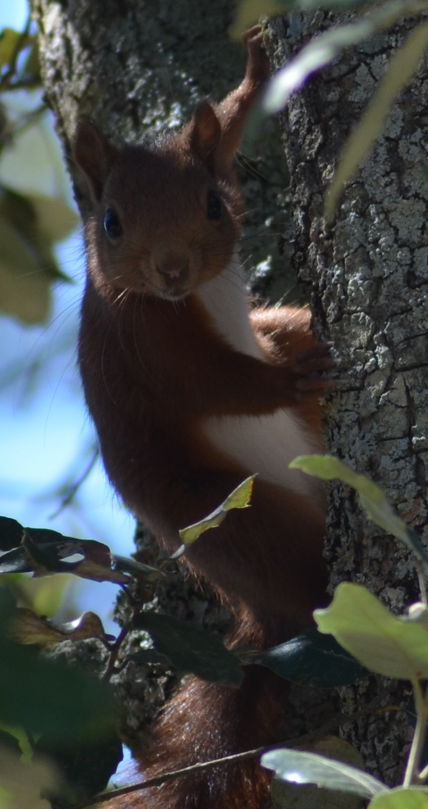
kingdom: Animalia
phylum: Chordata
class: Mammalia
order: Rodentia
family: Sciuridae
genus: Sciurus
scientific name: Sciurus vulgaris
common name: Eurasian red squirrel
